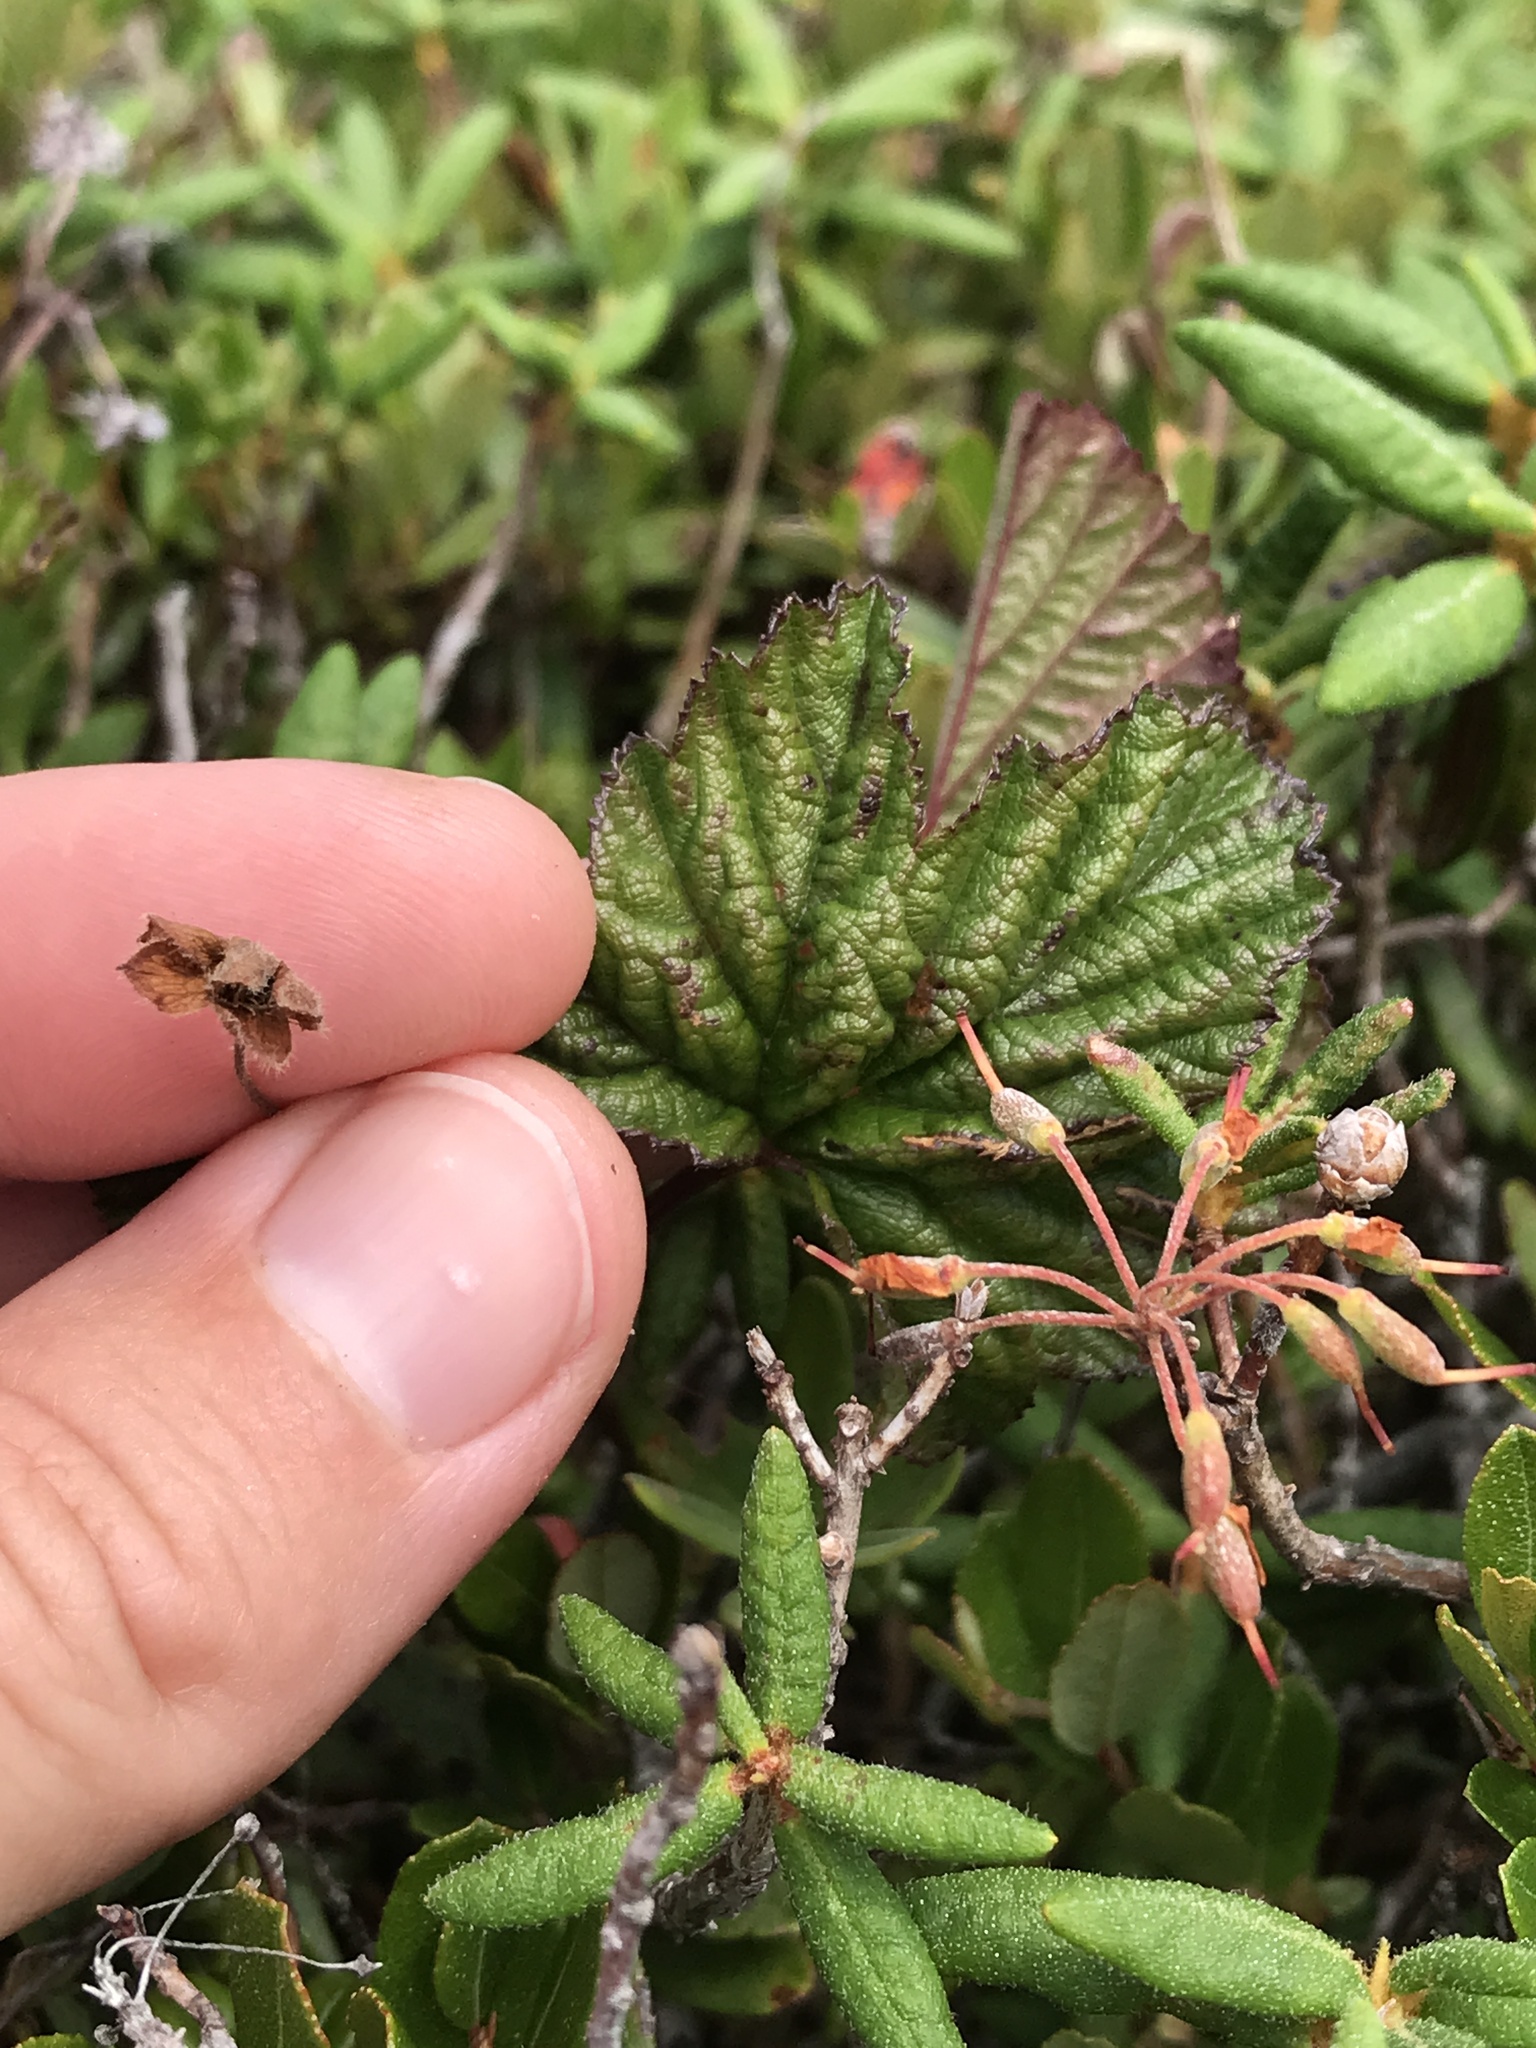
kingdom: Plantae
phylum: Tracheophyta
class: Magnoliopsida
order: Rosales
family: Rosaceae
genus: Rubus
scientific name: Rubus chamaemorus
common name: Cloudberry
